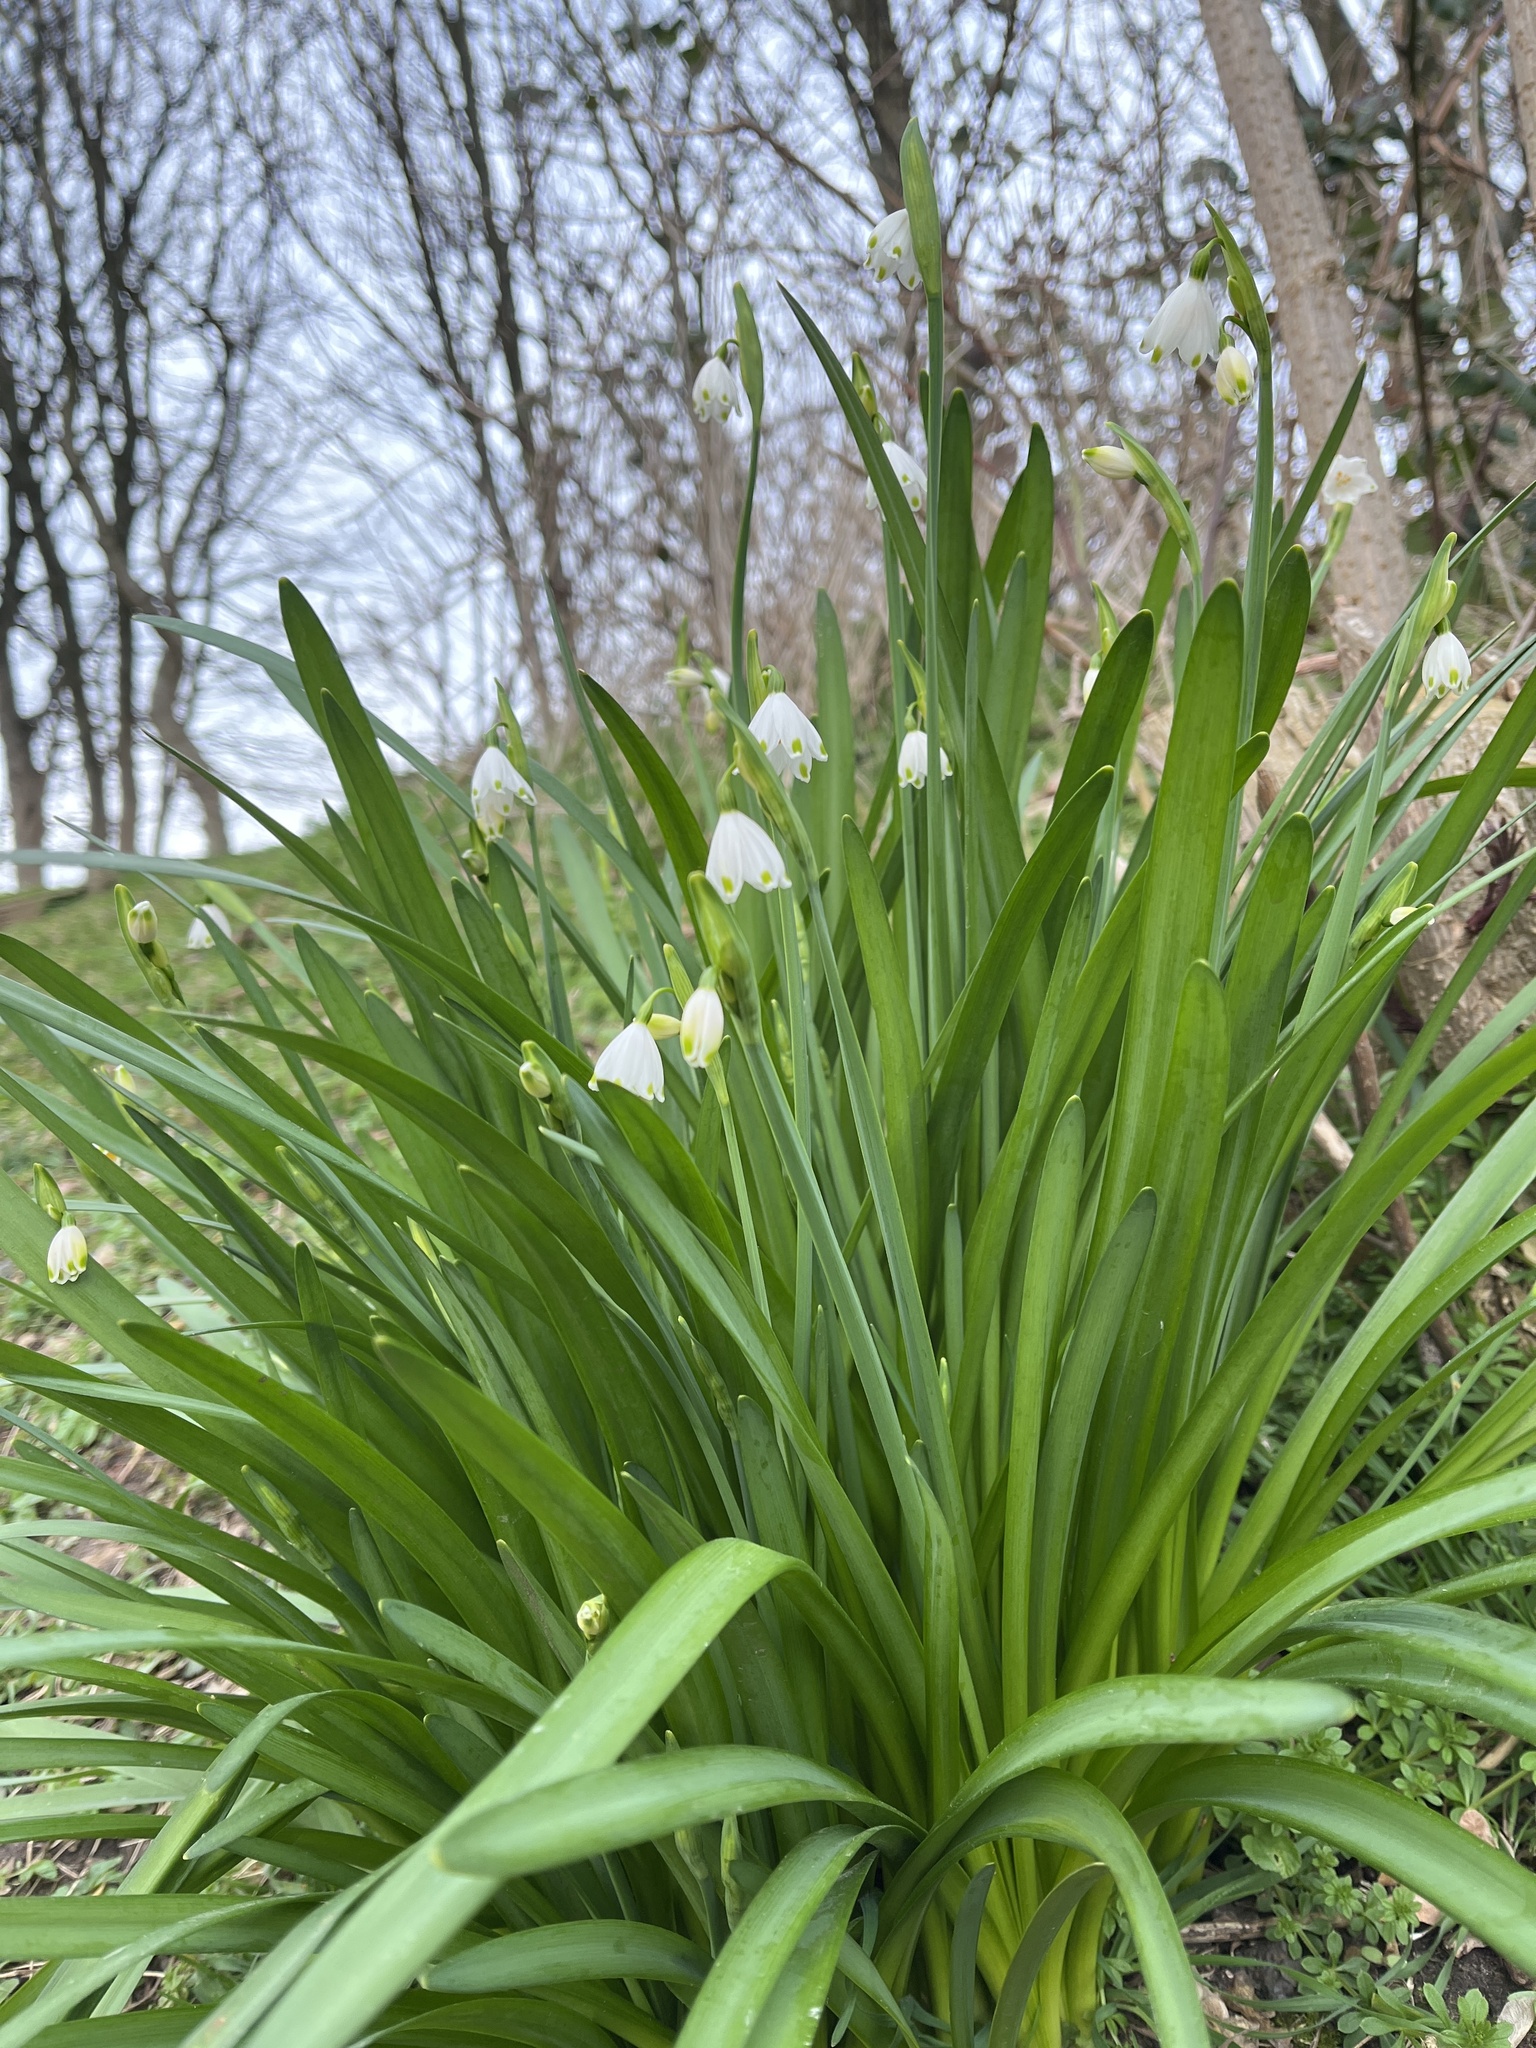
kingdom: Plantae
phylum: Tracheophyta
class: Liliopsida
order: Asparagales
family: Amaryllidaceae
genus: Leucojum
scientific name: Leucojum aestivum
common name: Summer snowflake
